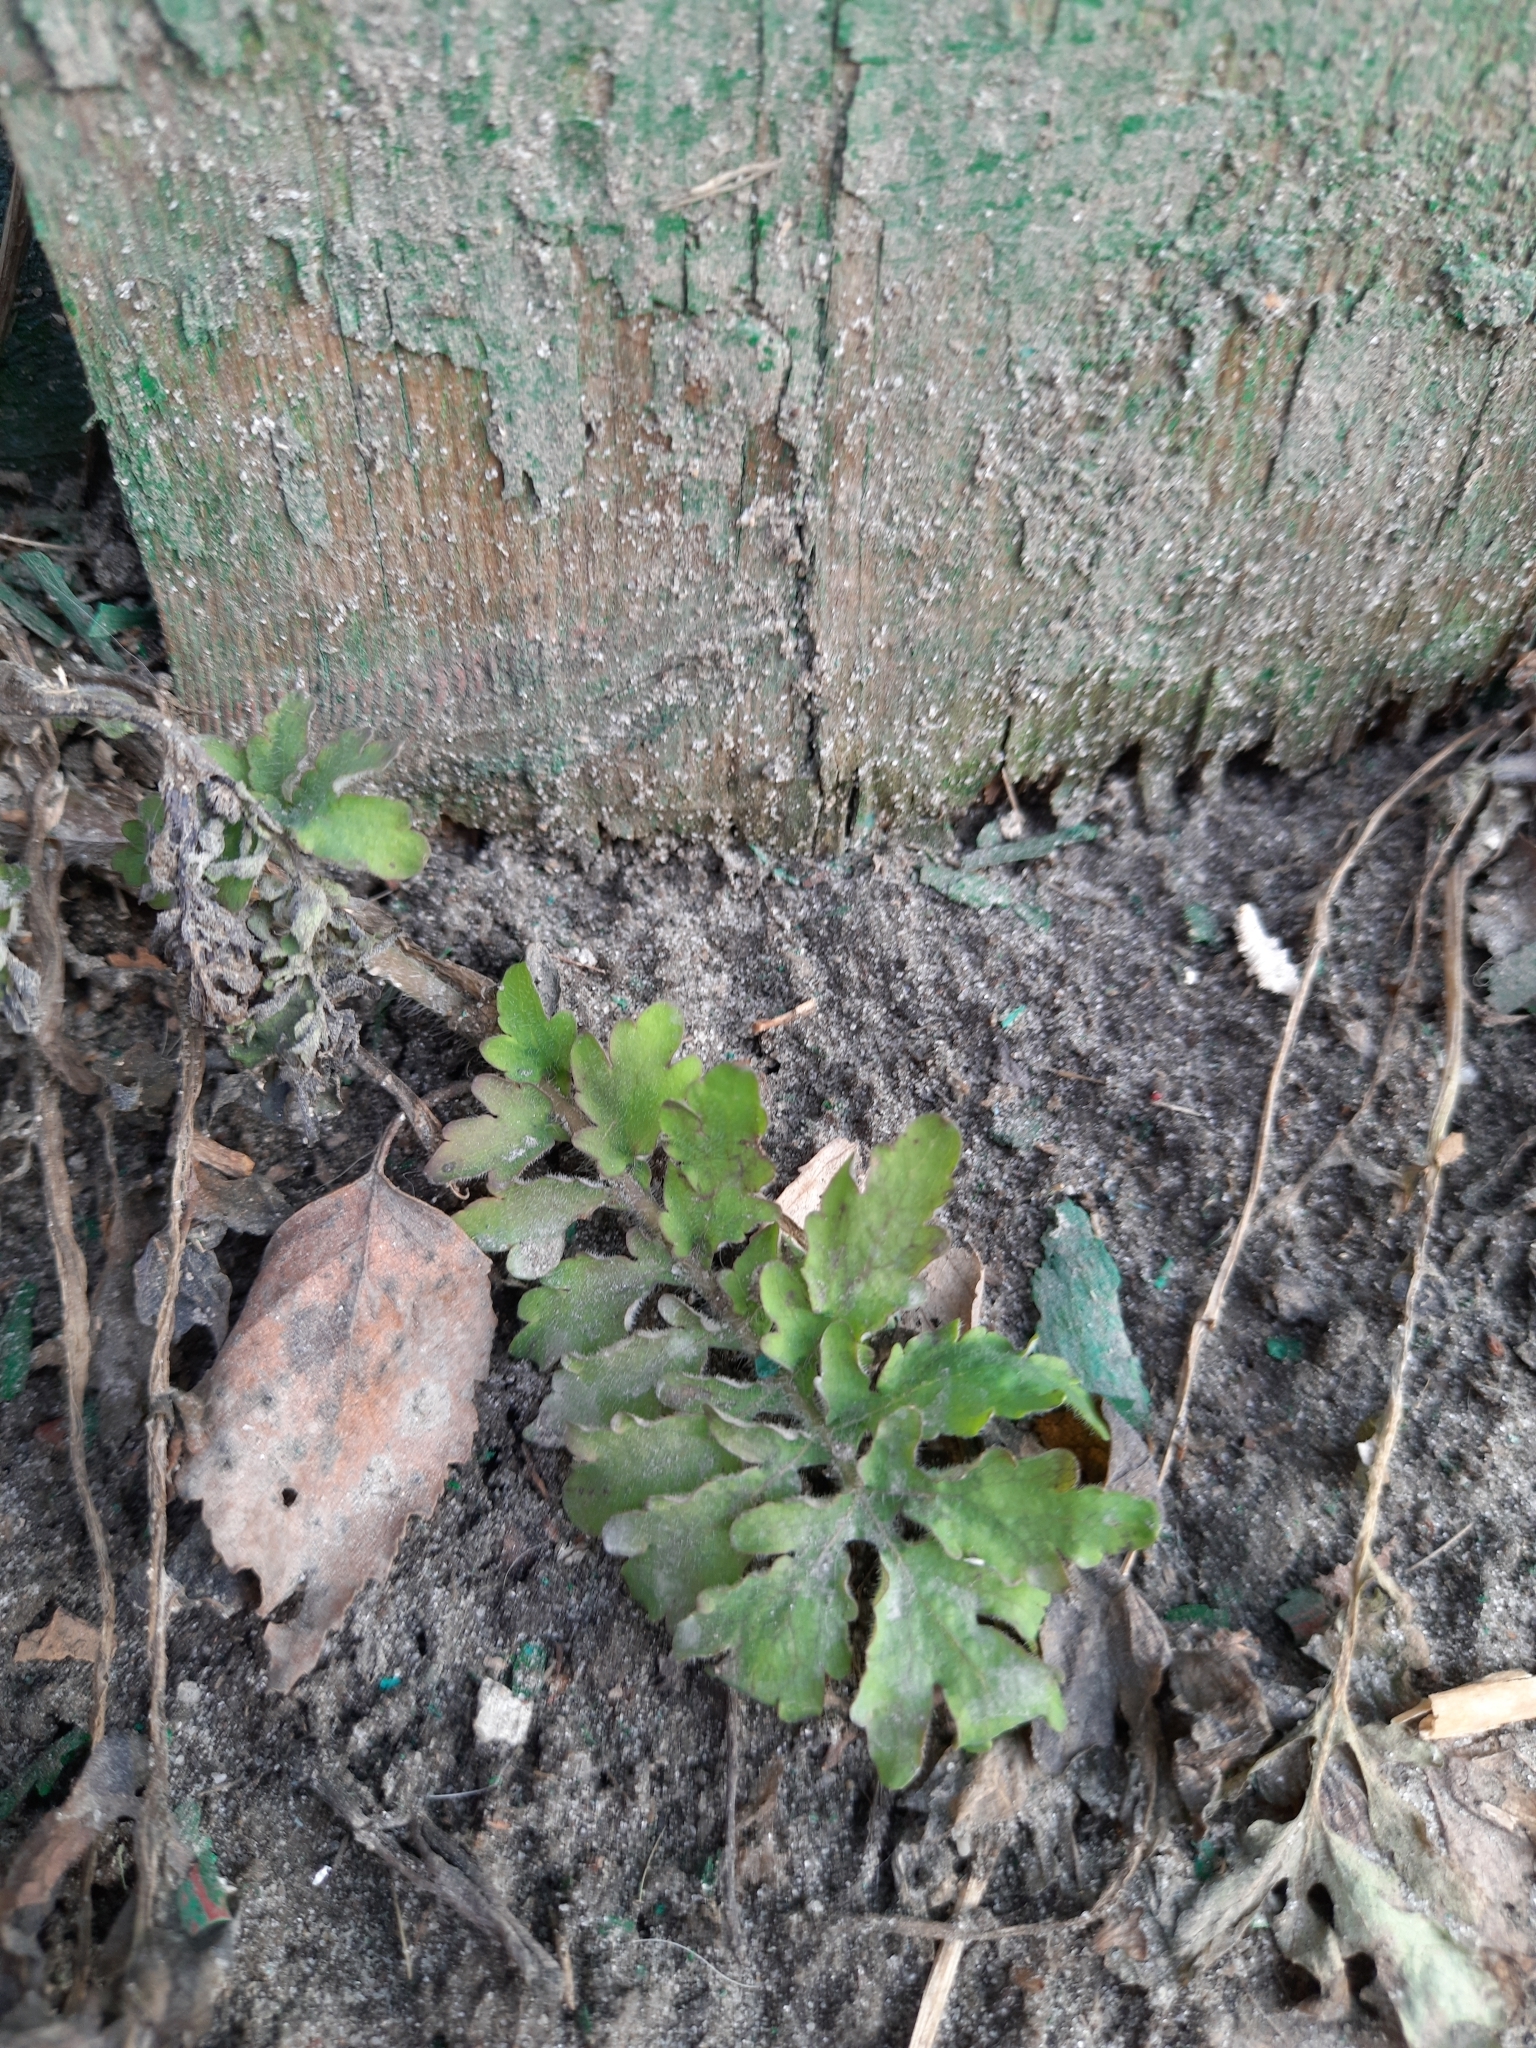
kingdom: Plantae
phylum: Tracheophyta
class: Magnoliopsida
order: Ranunculales
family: Papaveraceae
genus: Chelidonium
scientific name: Chelidonium majus
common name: Greater celandine
